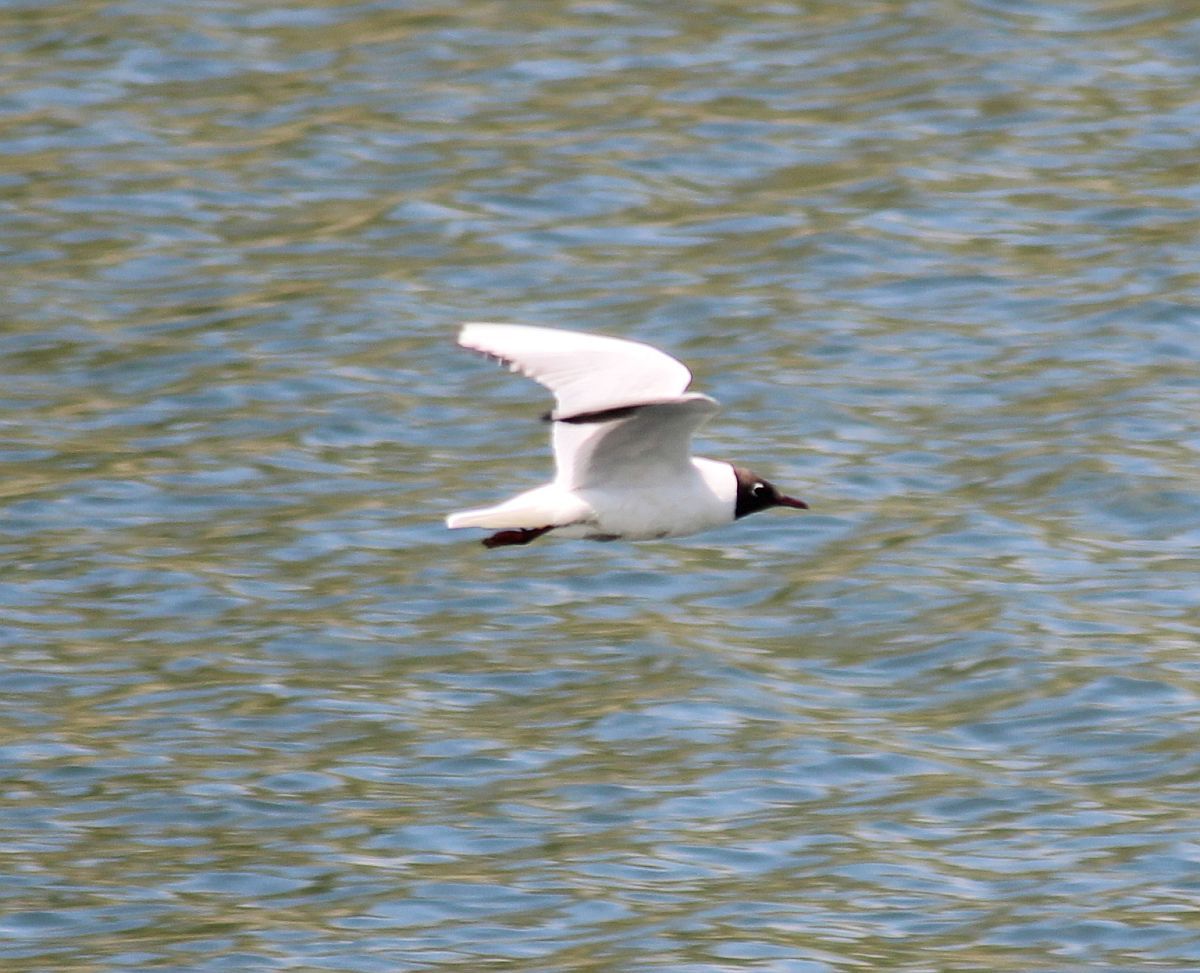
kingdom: Animalia
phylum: Chordata
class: Aves
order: Charadriiformes
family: Laridae
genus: Chroicocephalus
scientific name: Chroicocephalus ridibundus
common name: Black-headed gull
